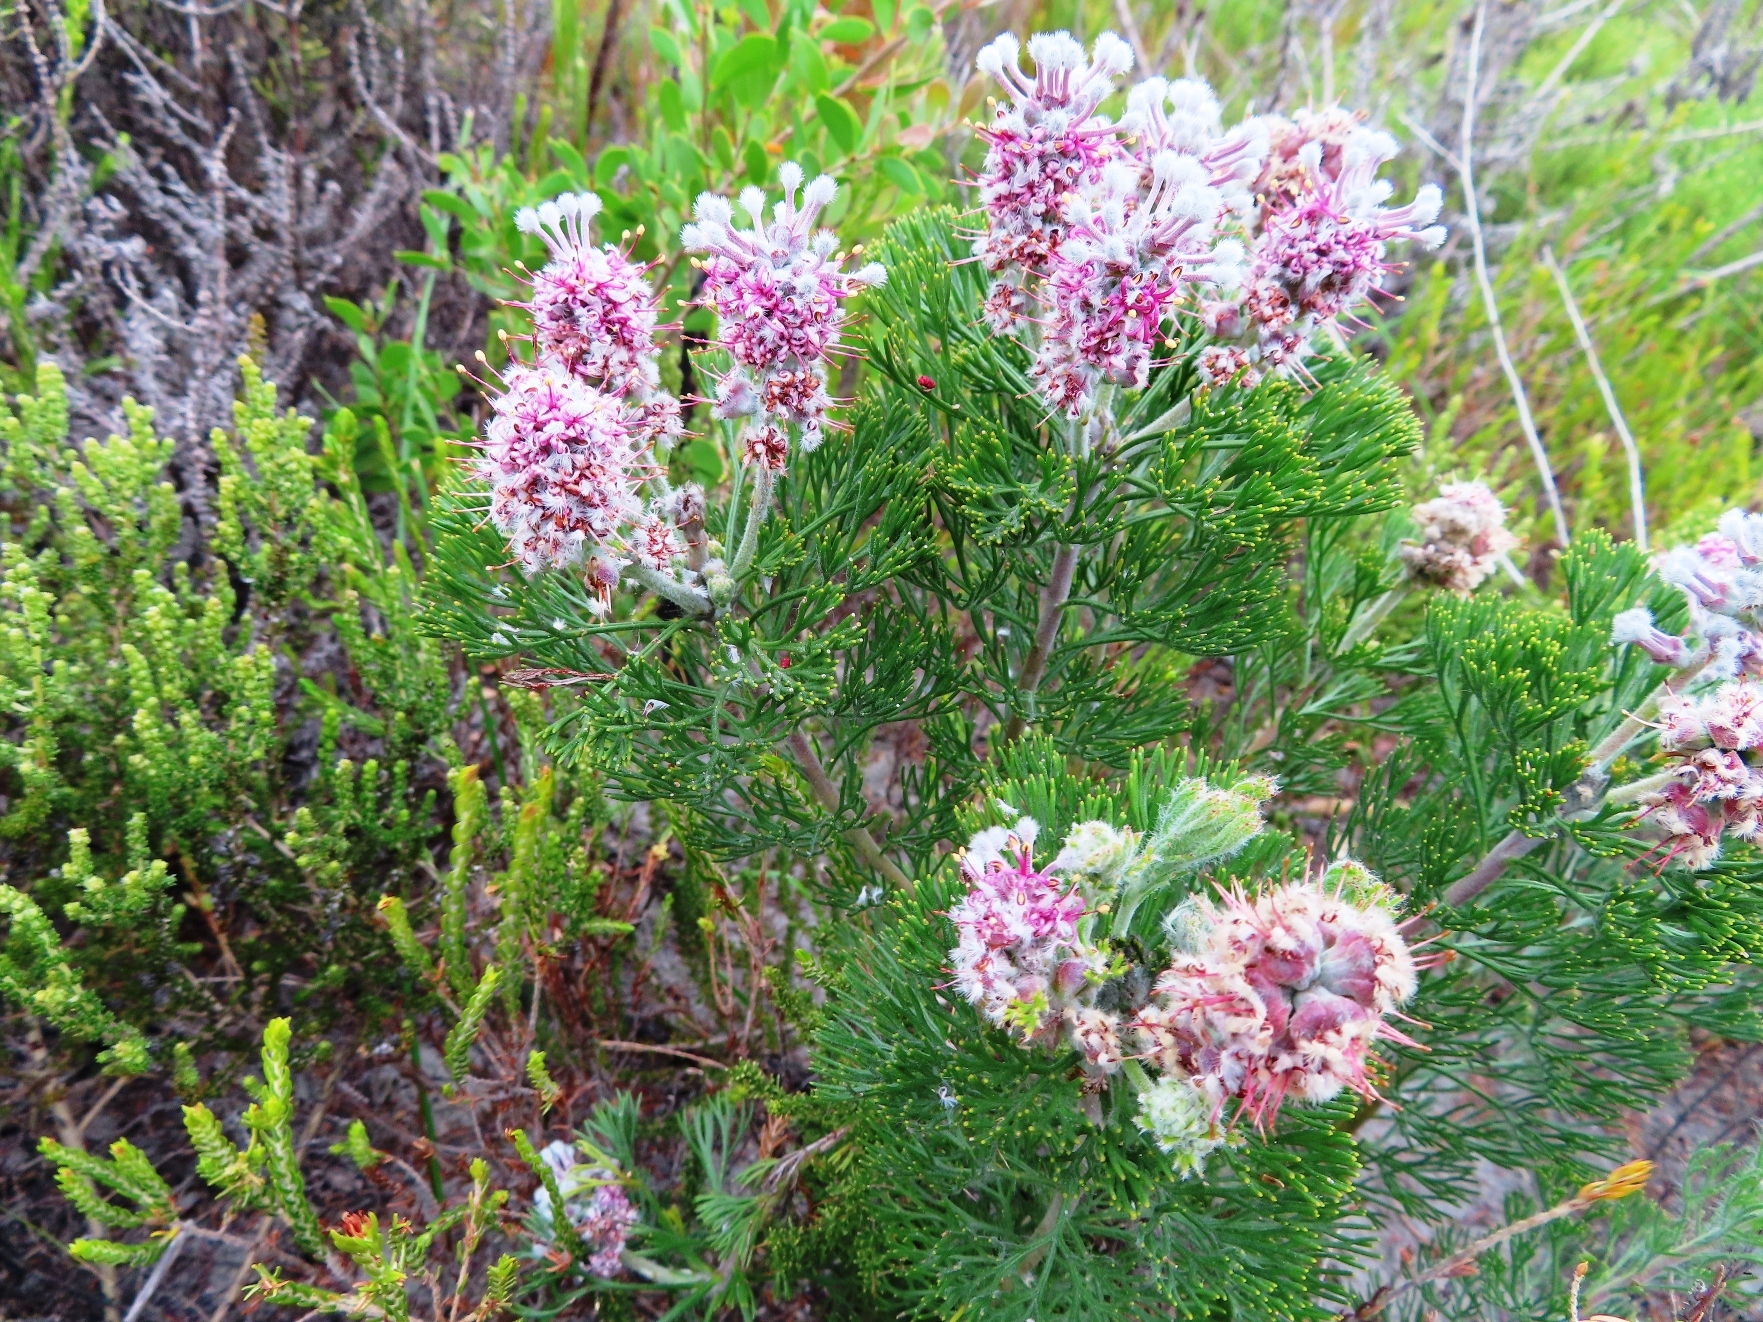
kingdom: Plantae
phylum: Tracheophyta
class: Magnoliopsida
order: Proteales
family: Proteaceae
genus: Paranomus
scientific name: Paranomus abrotanifolius
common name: Bredasdorp sceptre
